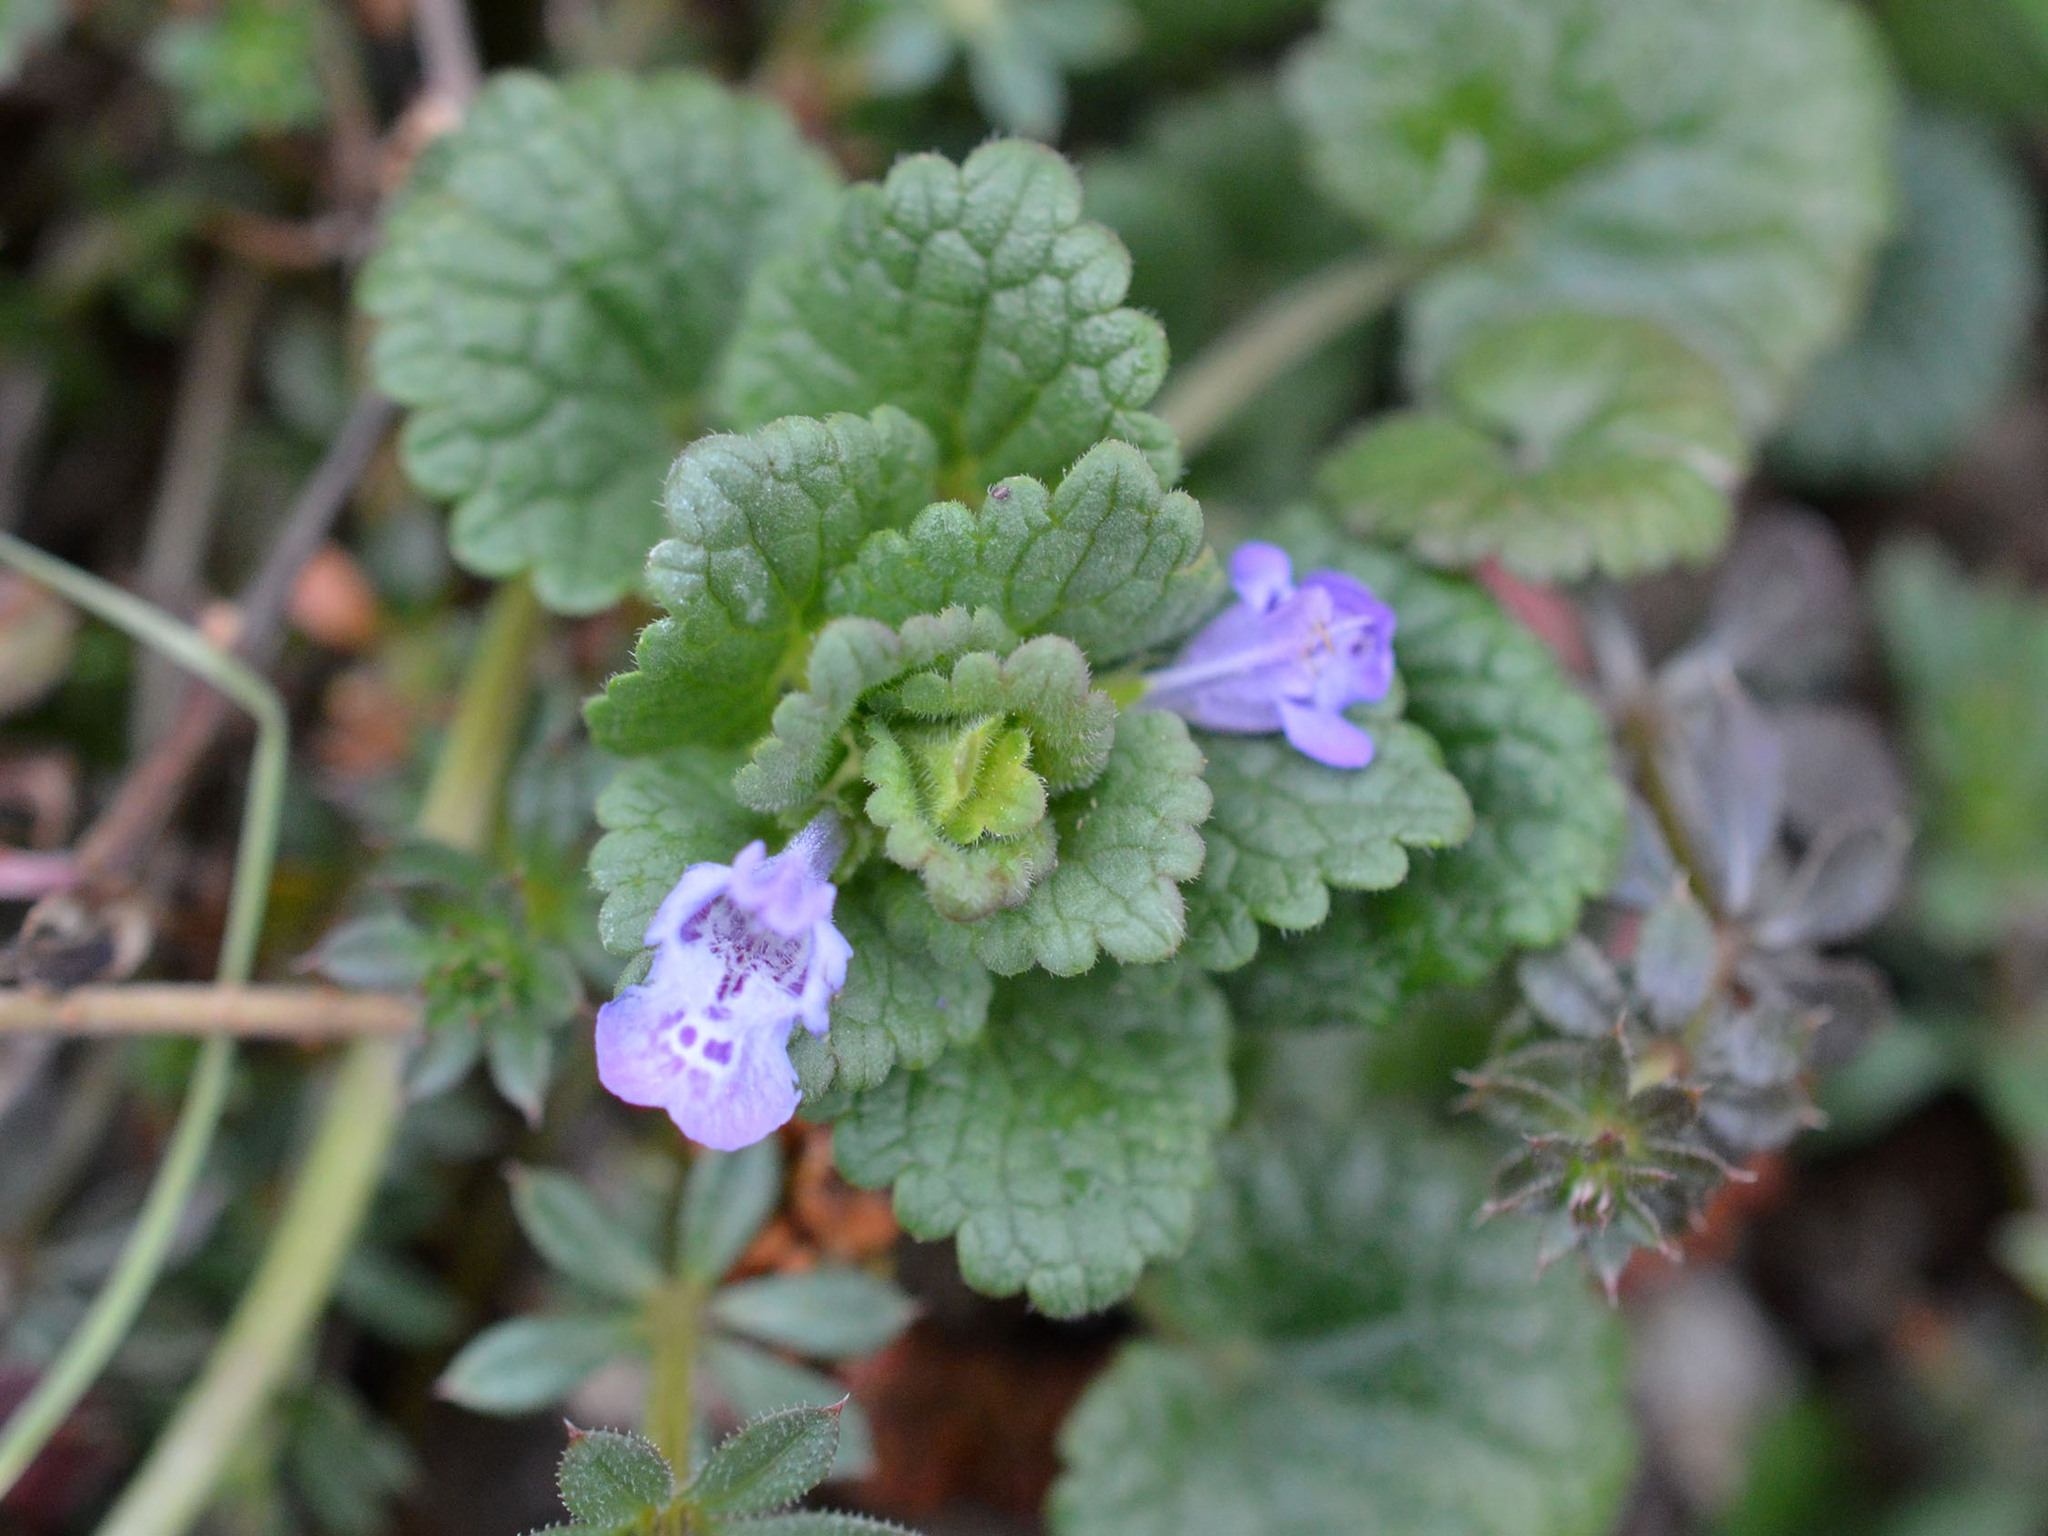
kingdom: Plantae
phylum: Tracheophyta
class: Magnoliopsida
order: Lamiales
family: Lamiaceae
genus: Glechoma
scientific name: Glechoma hederacea
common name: Ground ivy
